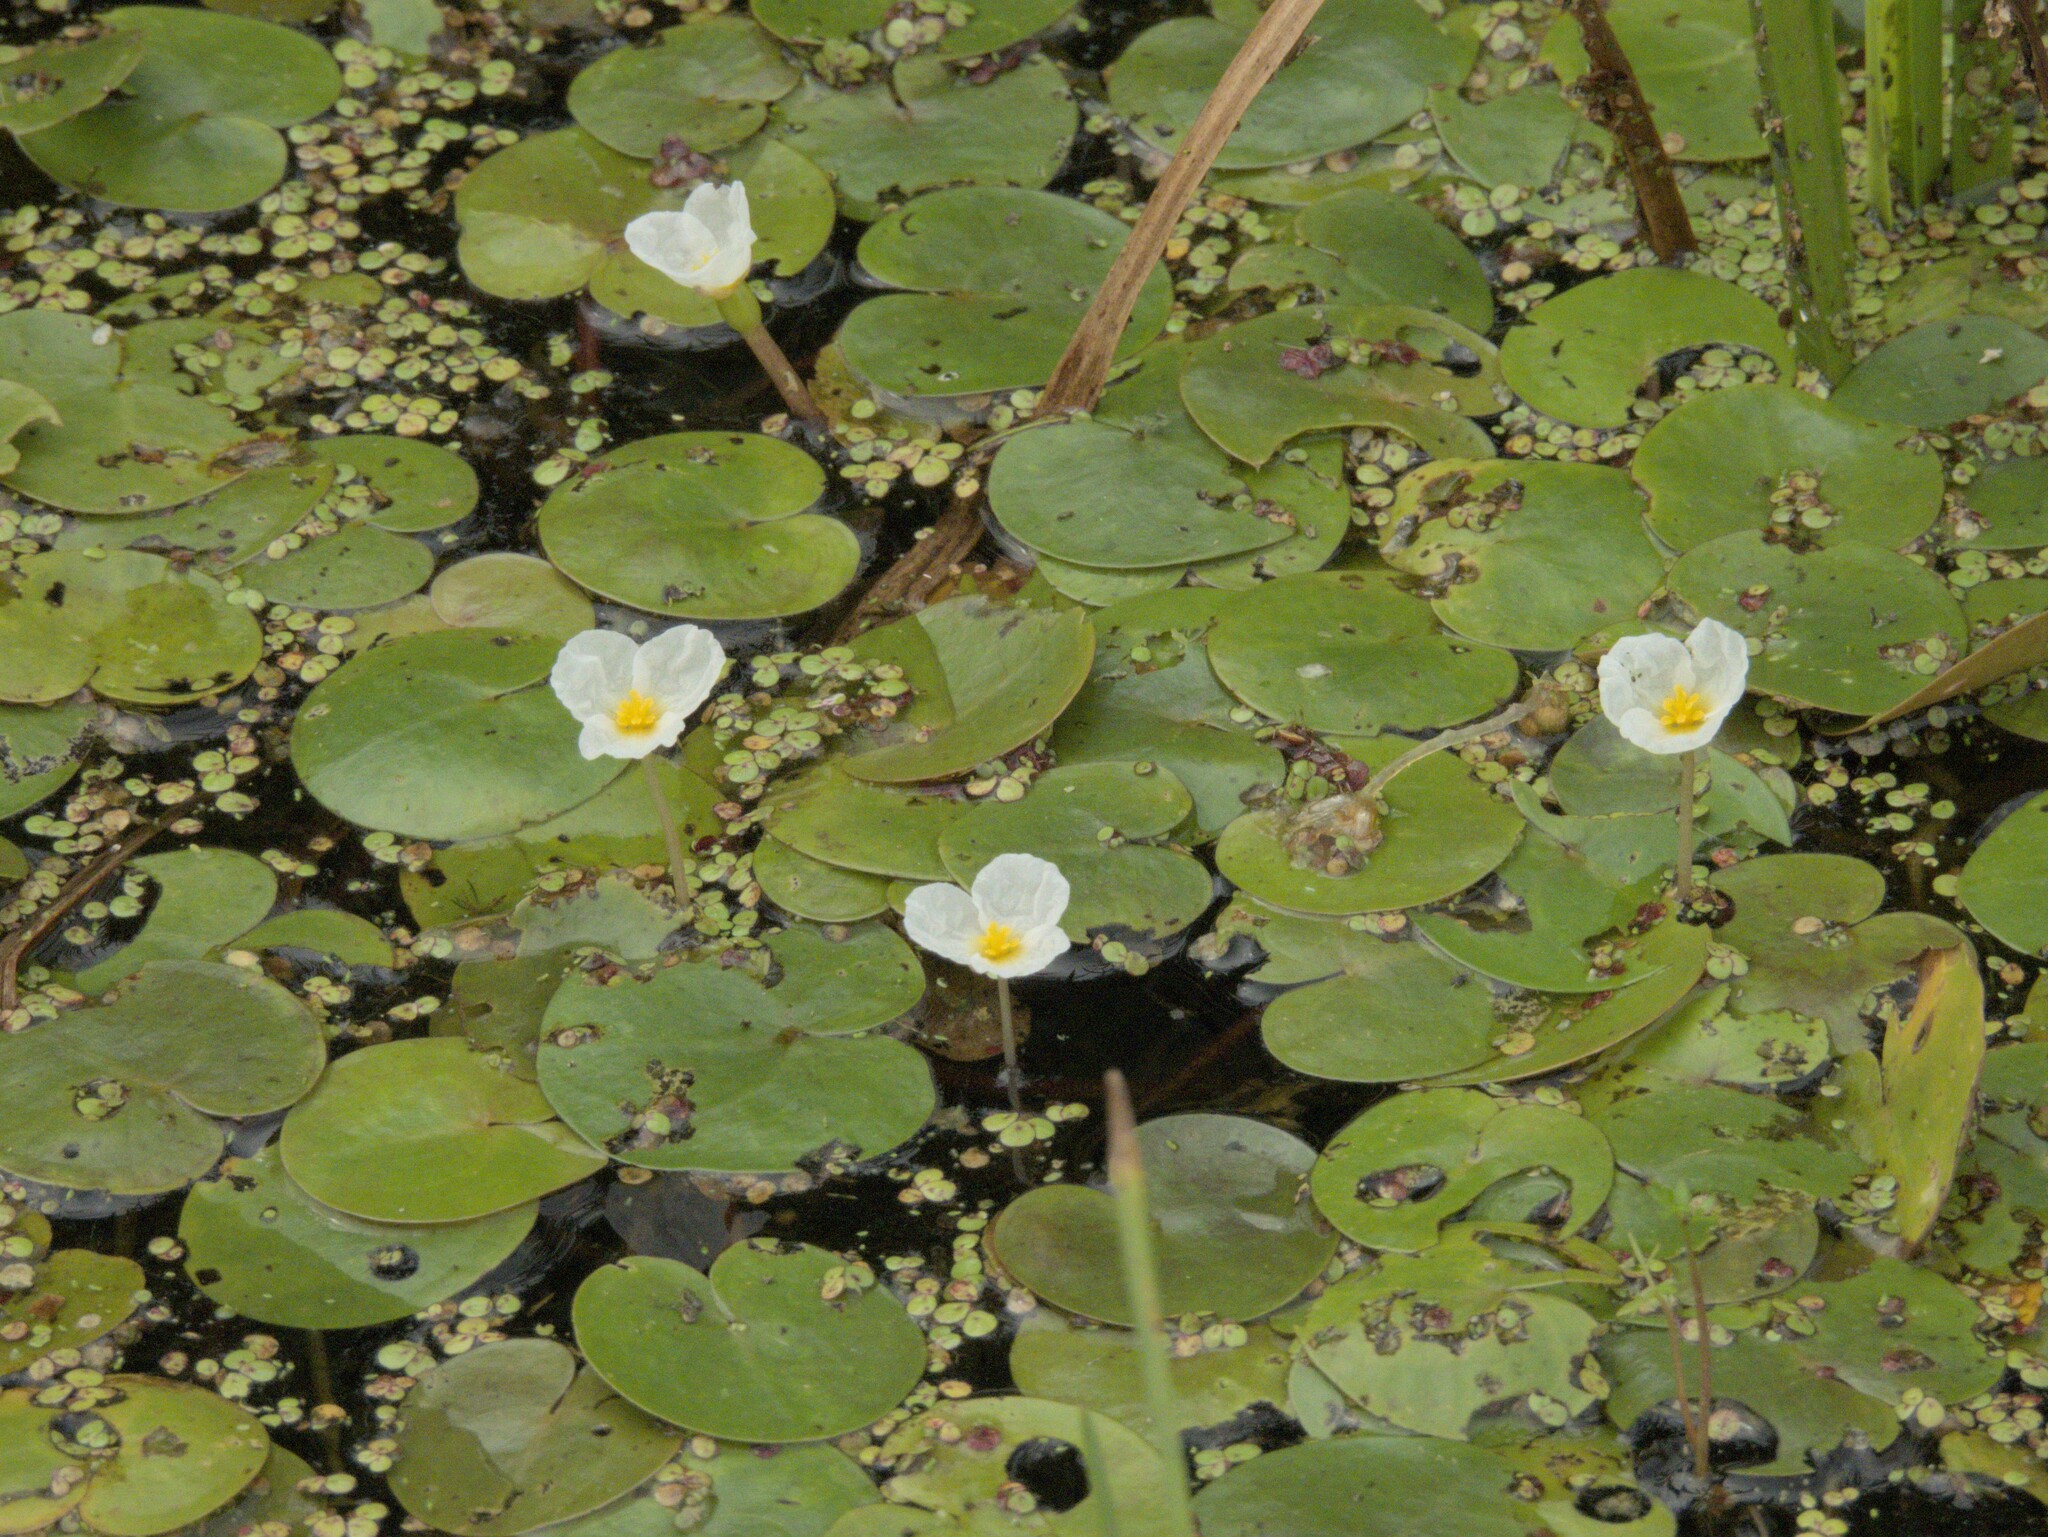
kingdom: Plantae
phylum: Tracheophyta
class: Liliopsida
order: Alismatales
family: Hydrocharitaceae
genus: Hydrocharis
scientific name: Hydrocharis morsus-ranae
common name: Frogbit
